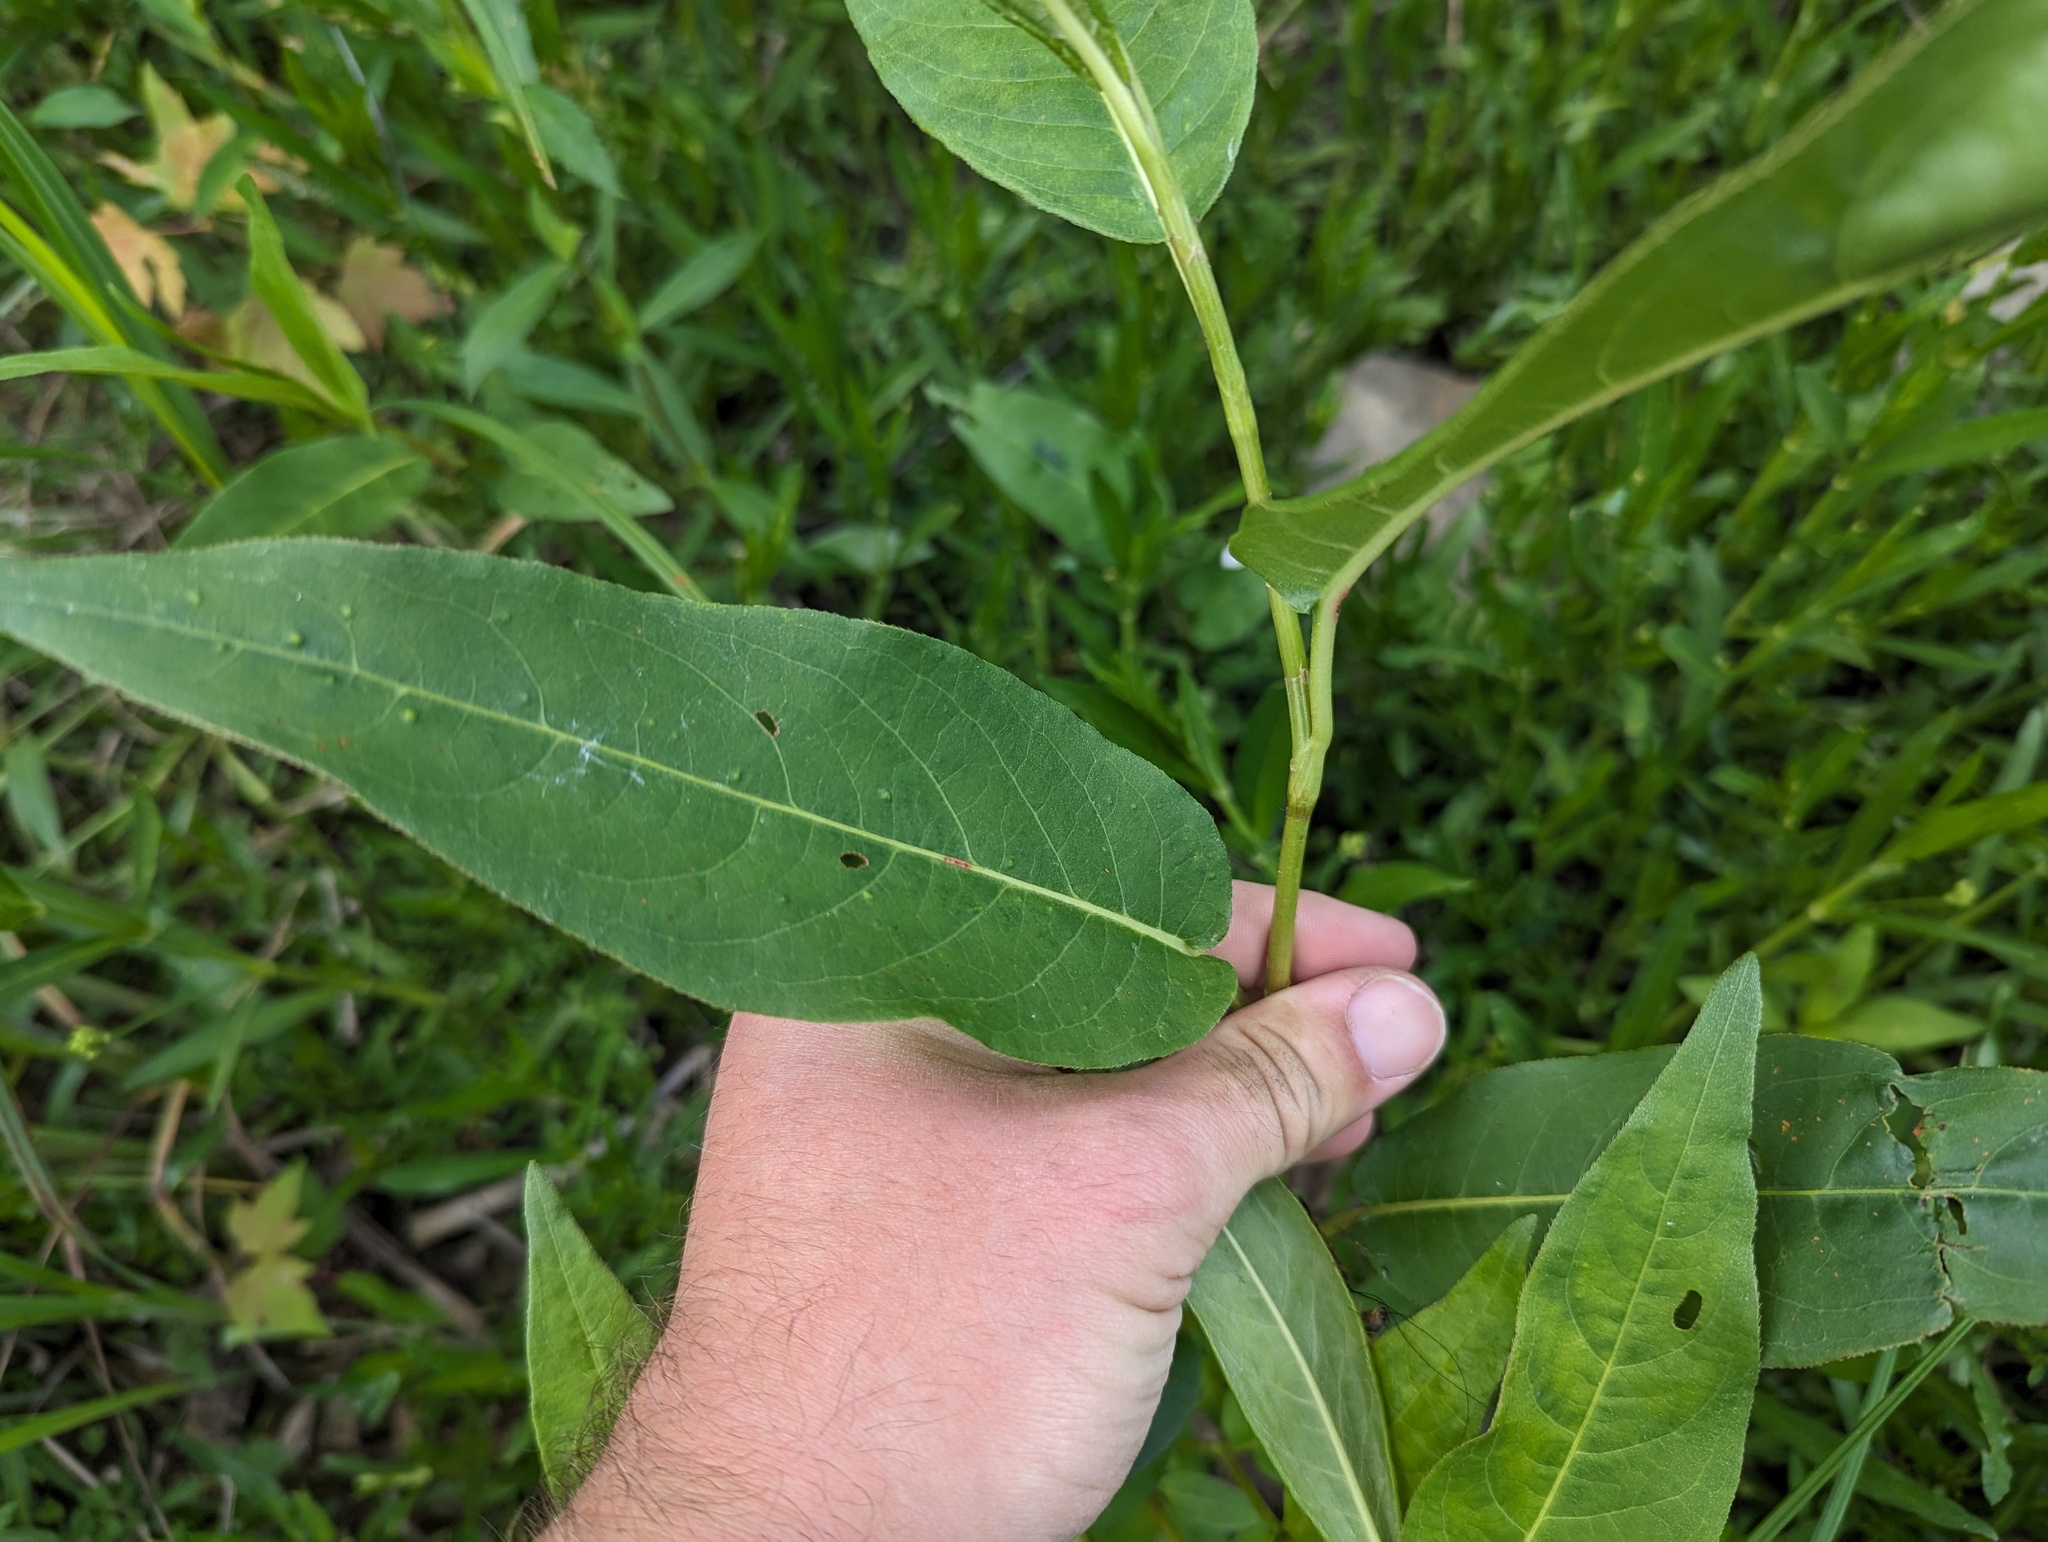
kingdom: Plantae
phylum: Tracheophyta
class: Magnoliopsida
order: Caryophyllales
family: Polygonaceae
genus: Persicaria
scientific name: Persicaria amphibia
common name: Amphibious bistort
